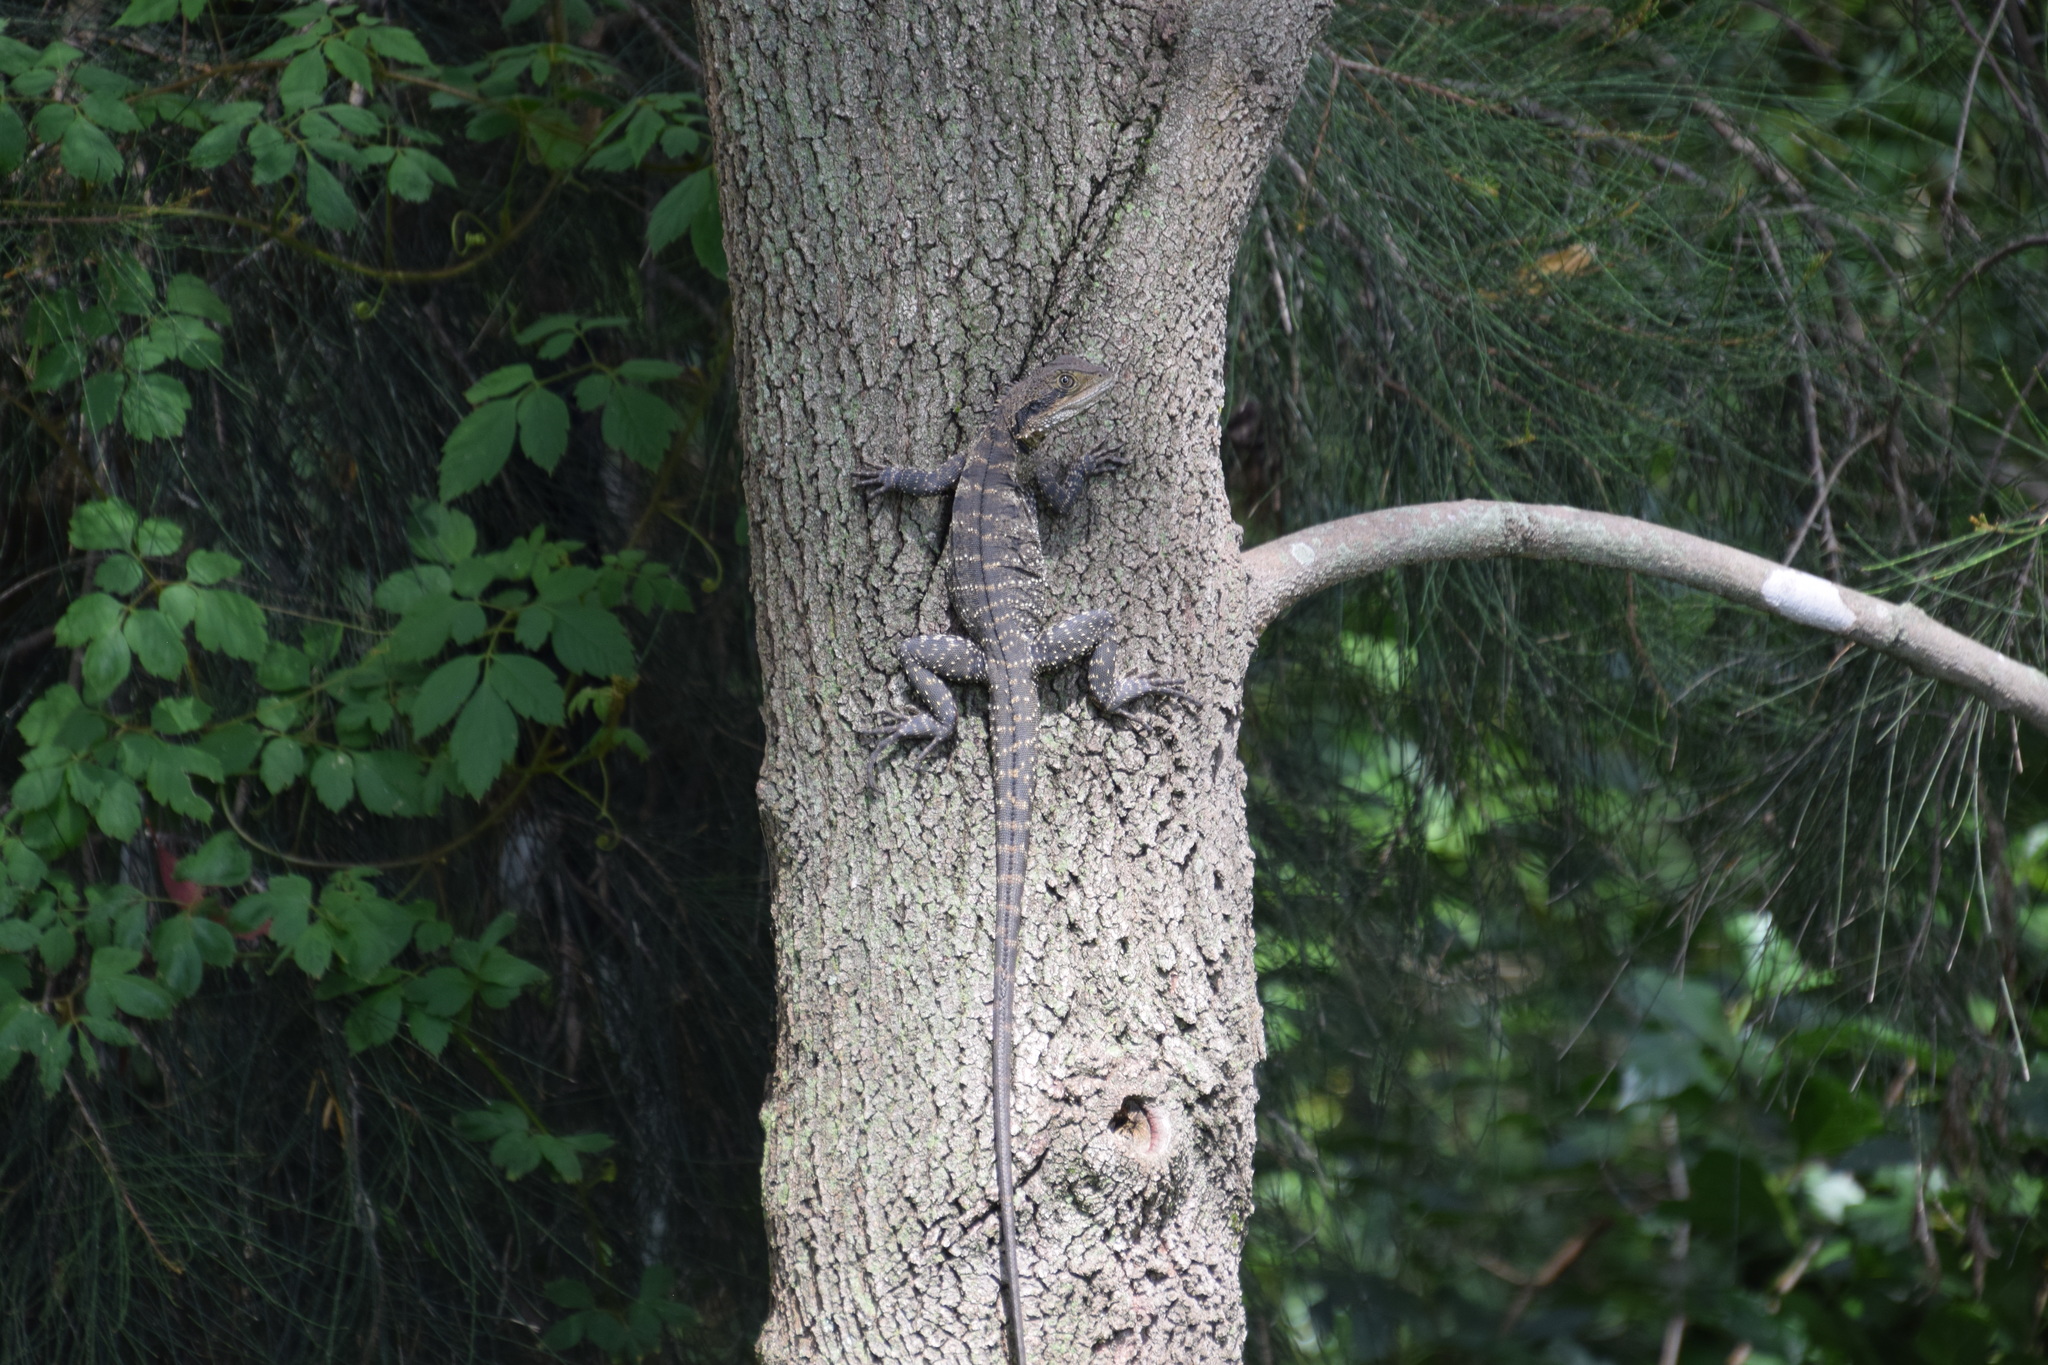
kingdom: Animalia
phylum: Chordata
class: Squamata
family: Agamidae
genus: Intellagama
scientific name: Intellagama lesueurii
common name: Eastern water dragon
